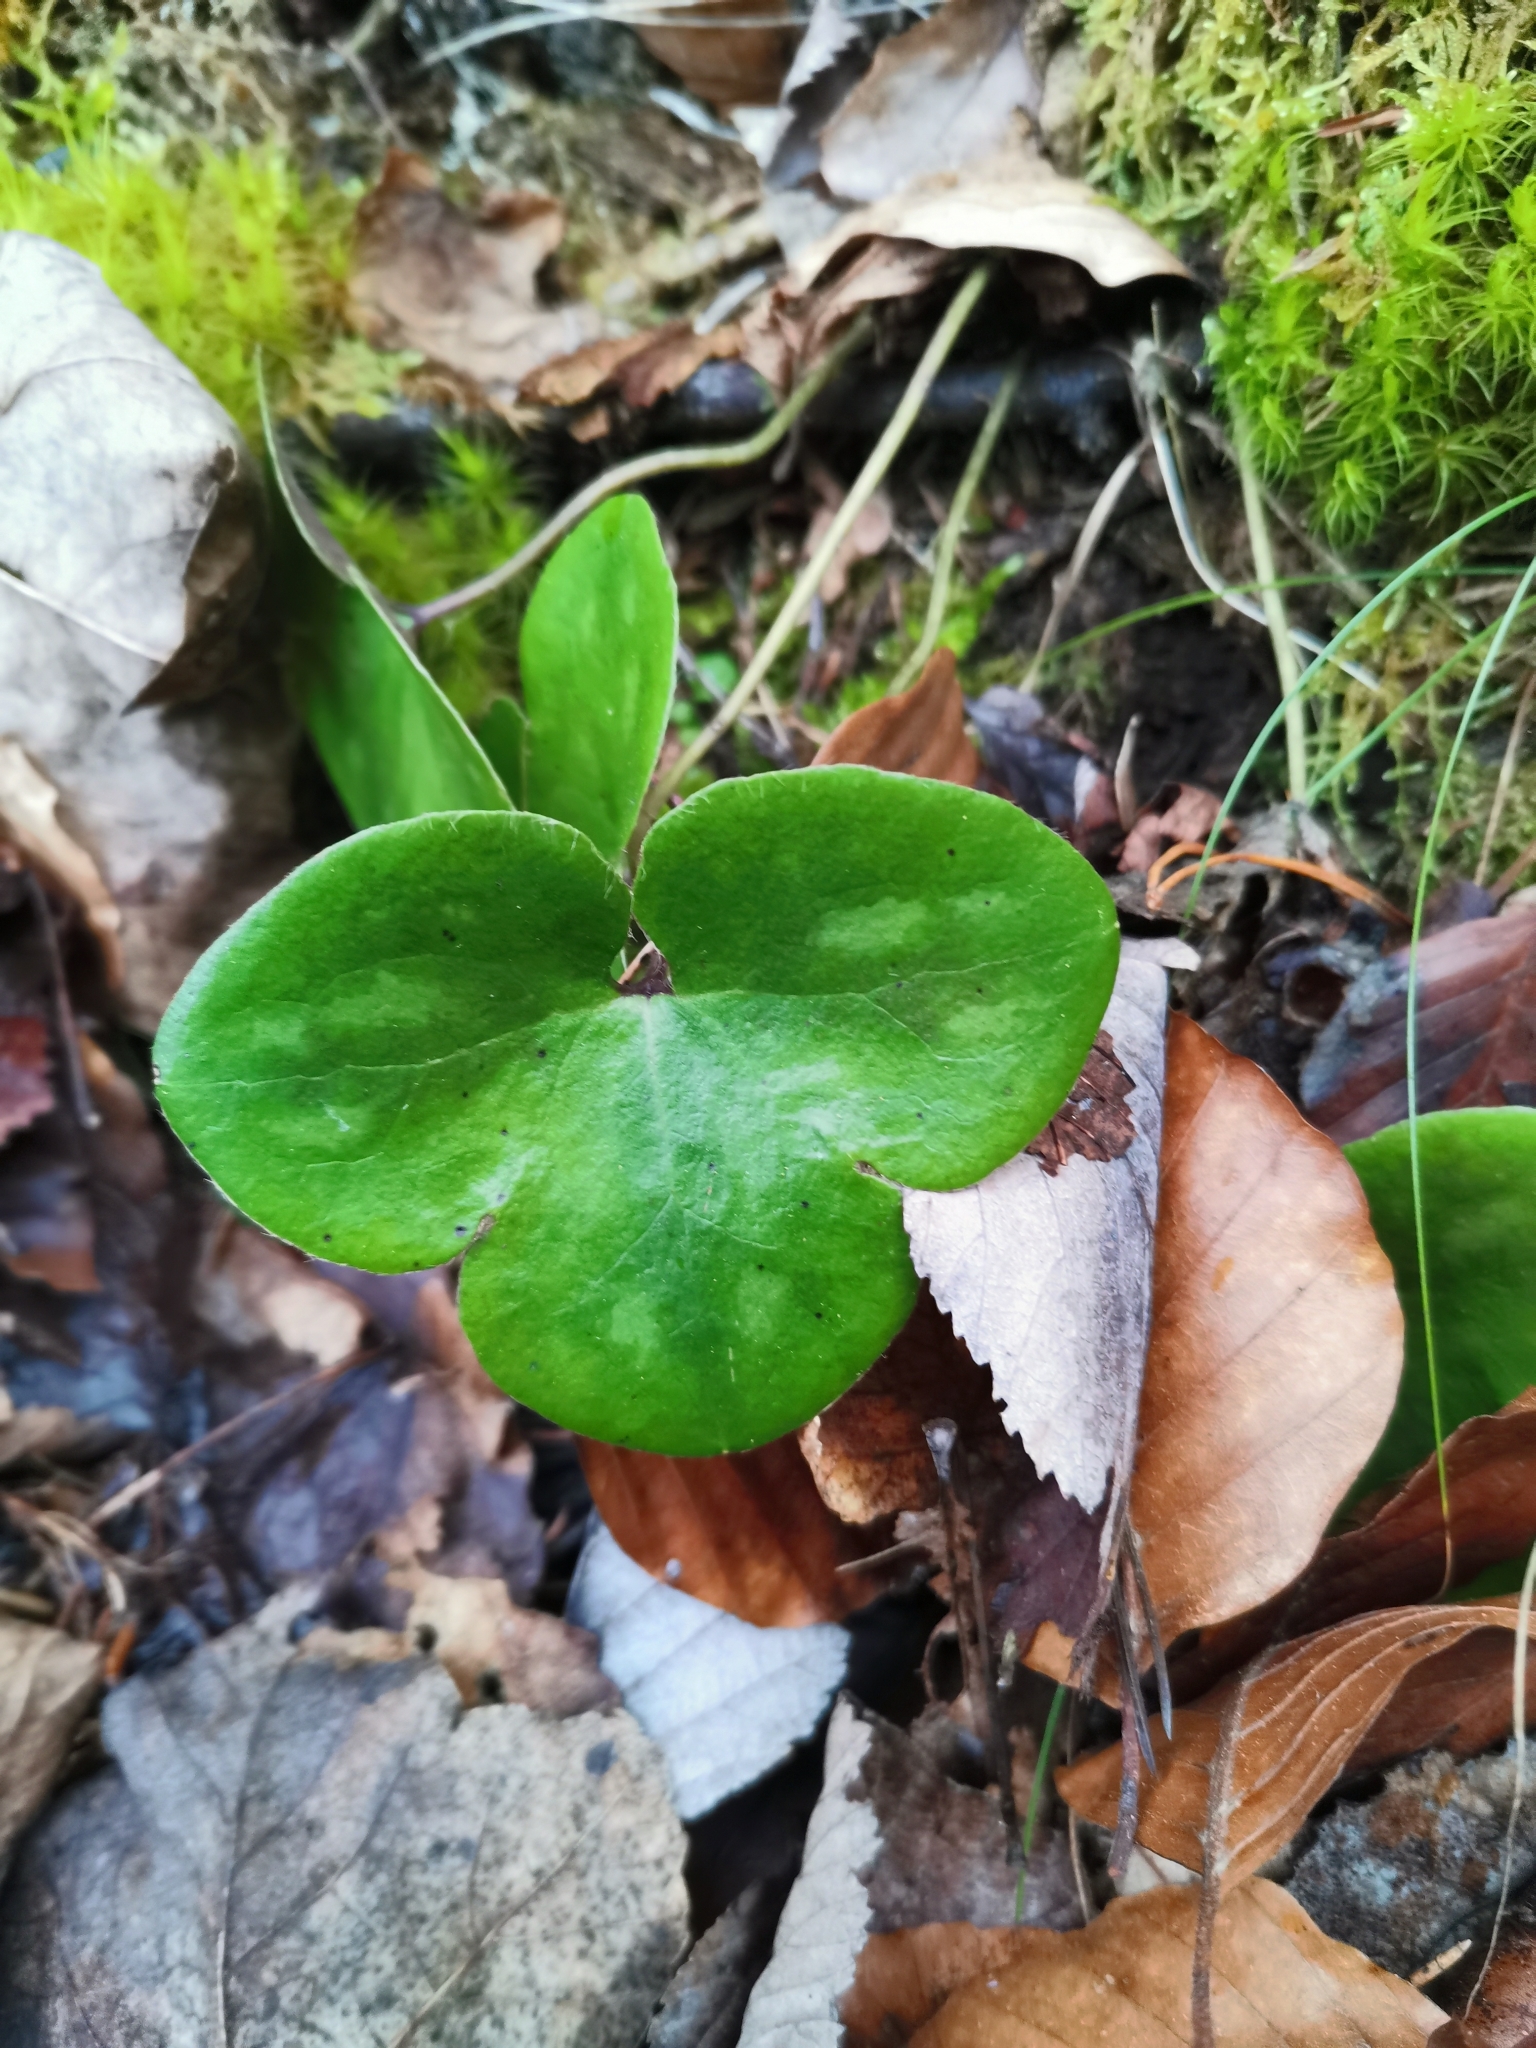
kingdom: Plantae
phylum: Tracheophyta
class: Magnoliopsida
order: Ranunculales
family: Ranunculaceae
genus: Hepatica
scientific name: Hepatica nobilis
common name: Liverleaf
